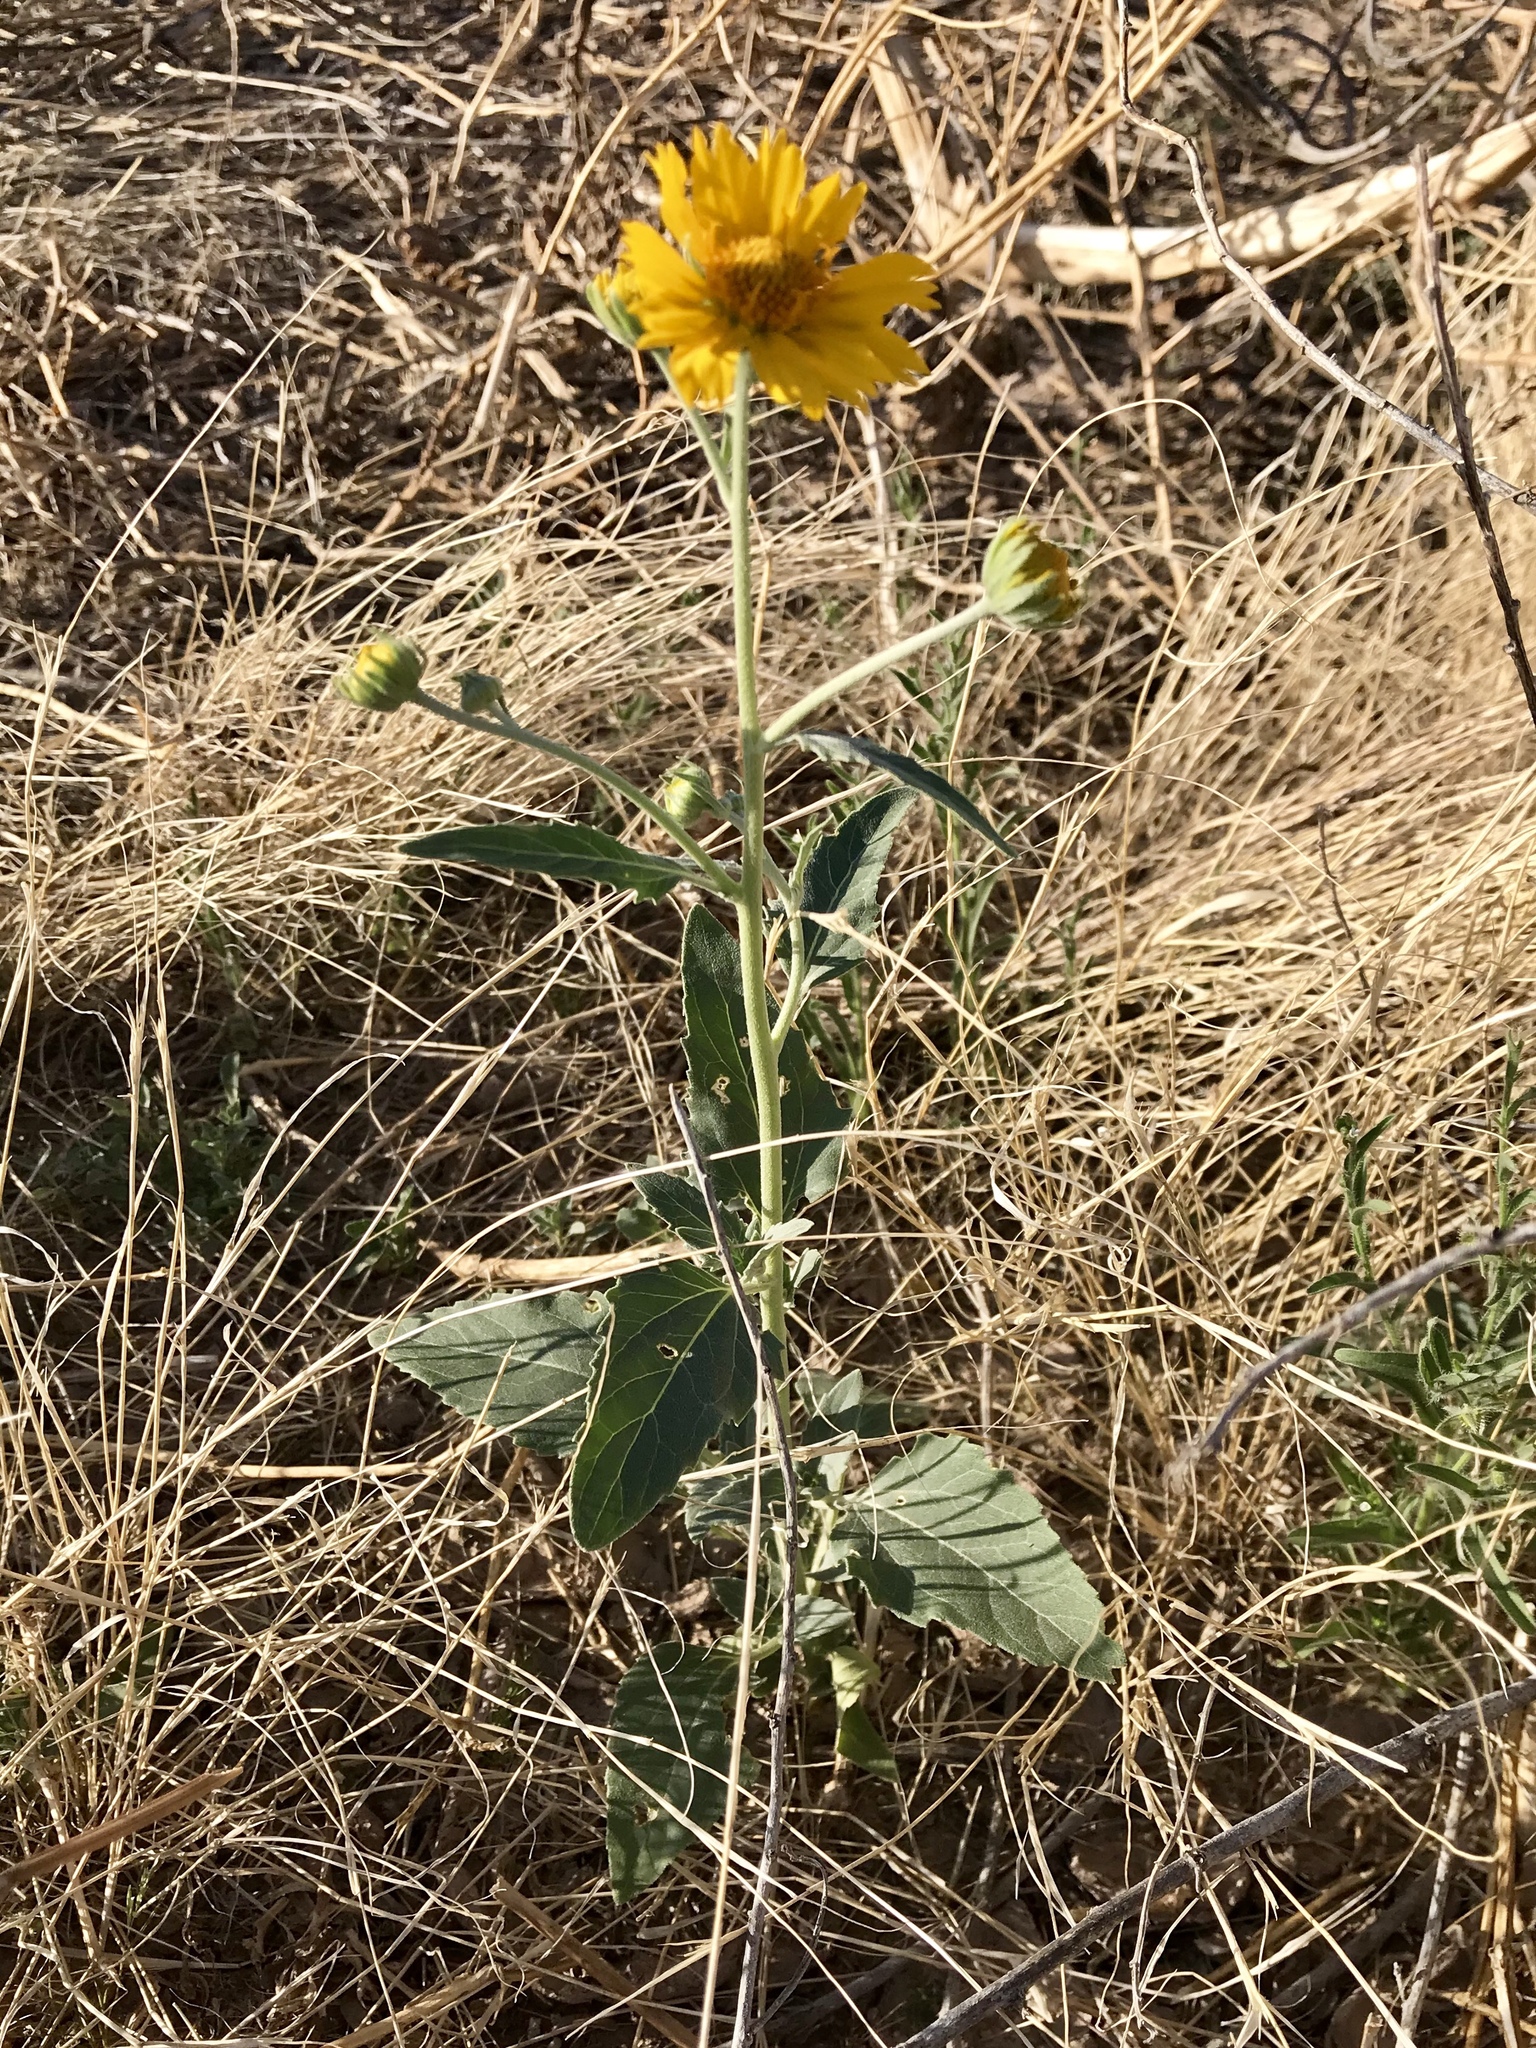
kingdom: Plantae
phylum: Tracheophyta
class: Magnoliopsida
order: Asterales
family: Asteraceae
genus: Verbesina
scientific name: Verbesina encelioides
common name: Golden crownbeard
